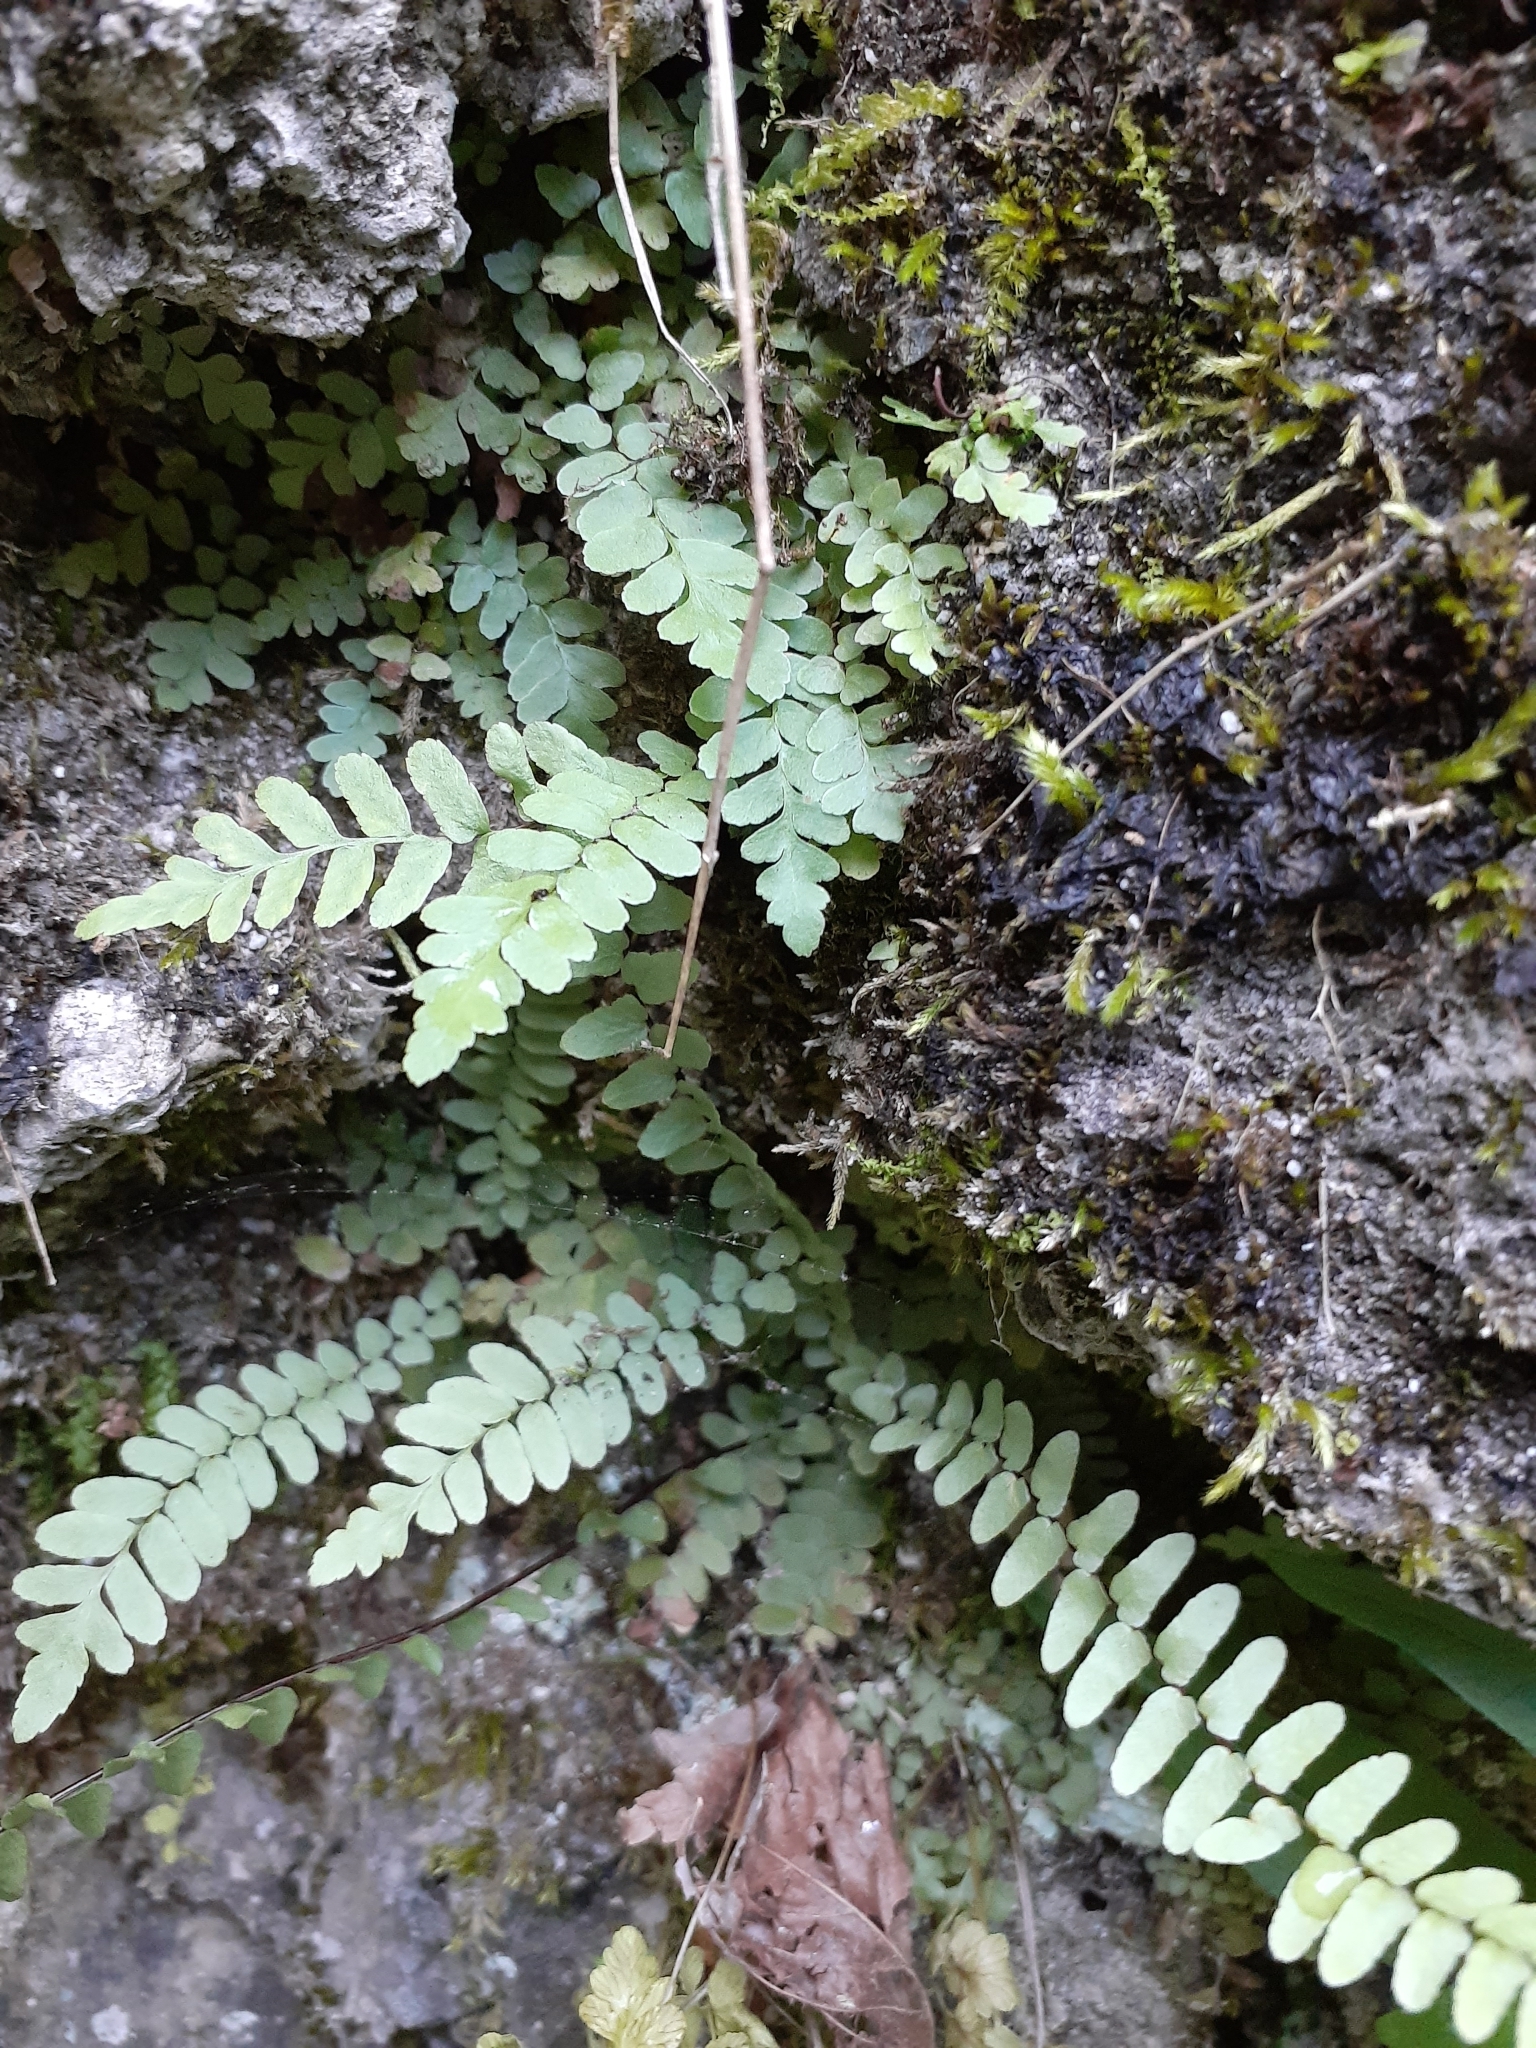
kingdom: Plantae
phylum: Tracheophyta
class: Polypodiopsida
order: Polypodiales
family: Aspleniaceae
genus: Asplenium
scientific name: Asplenium platyneuron
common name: Ebony spleenwort
